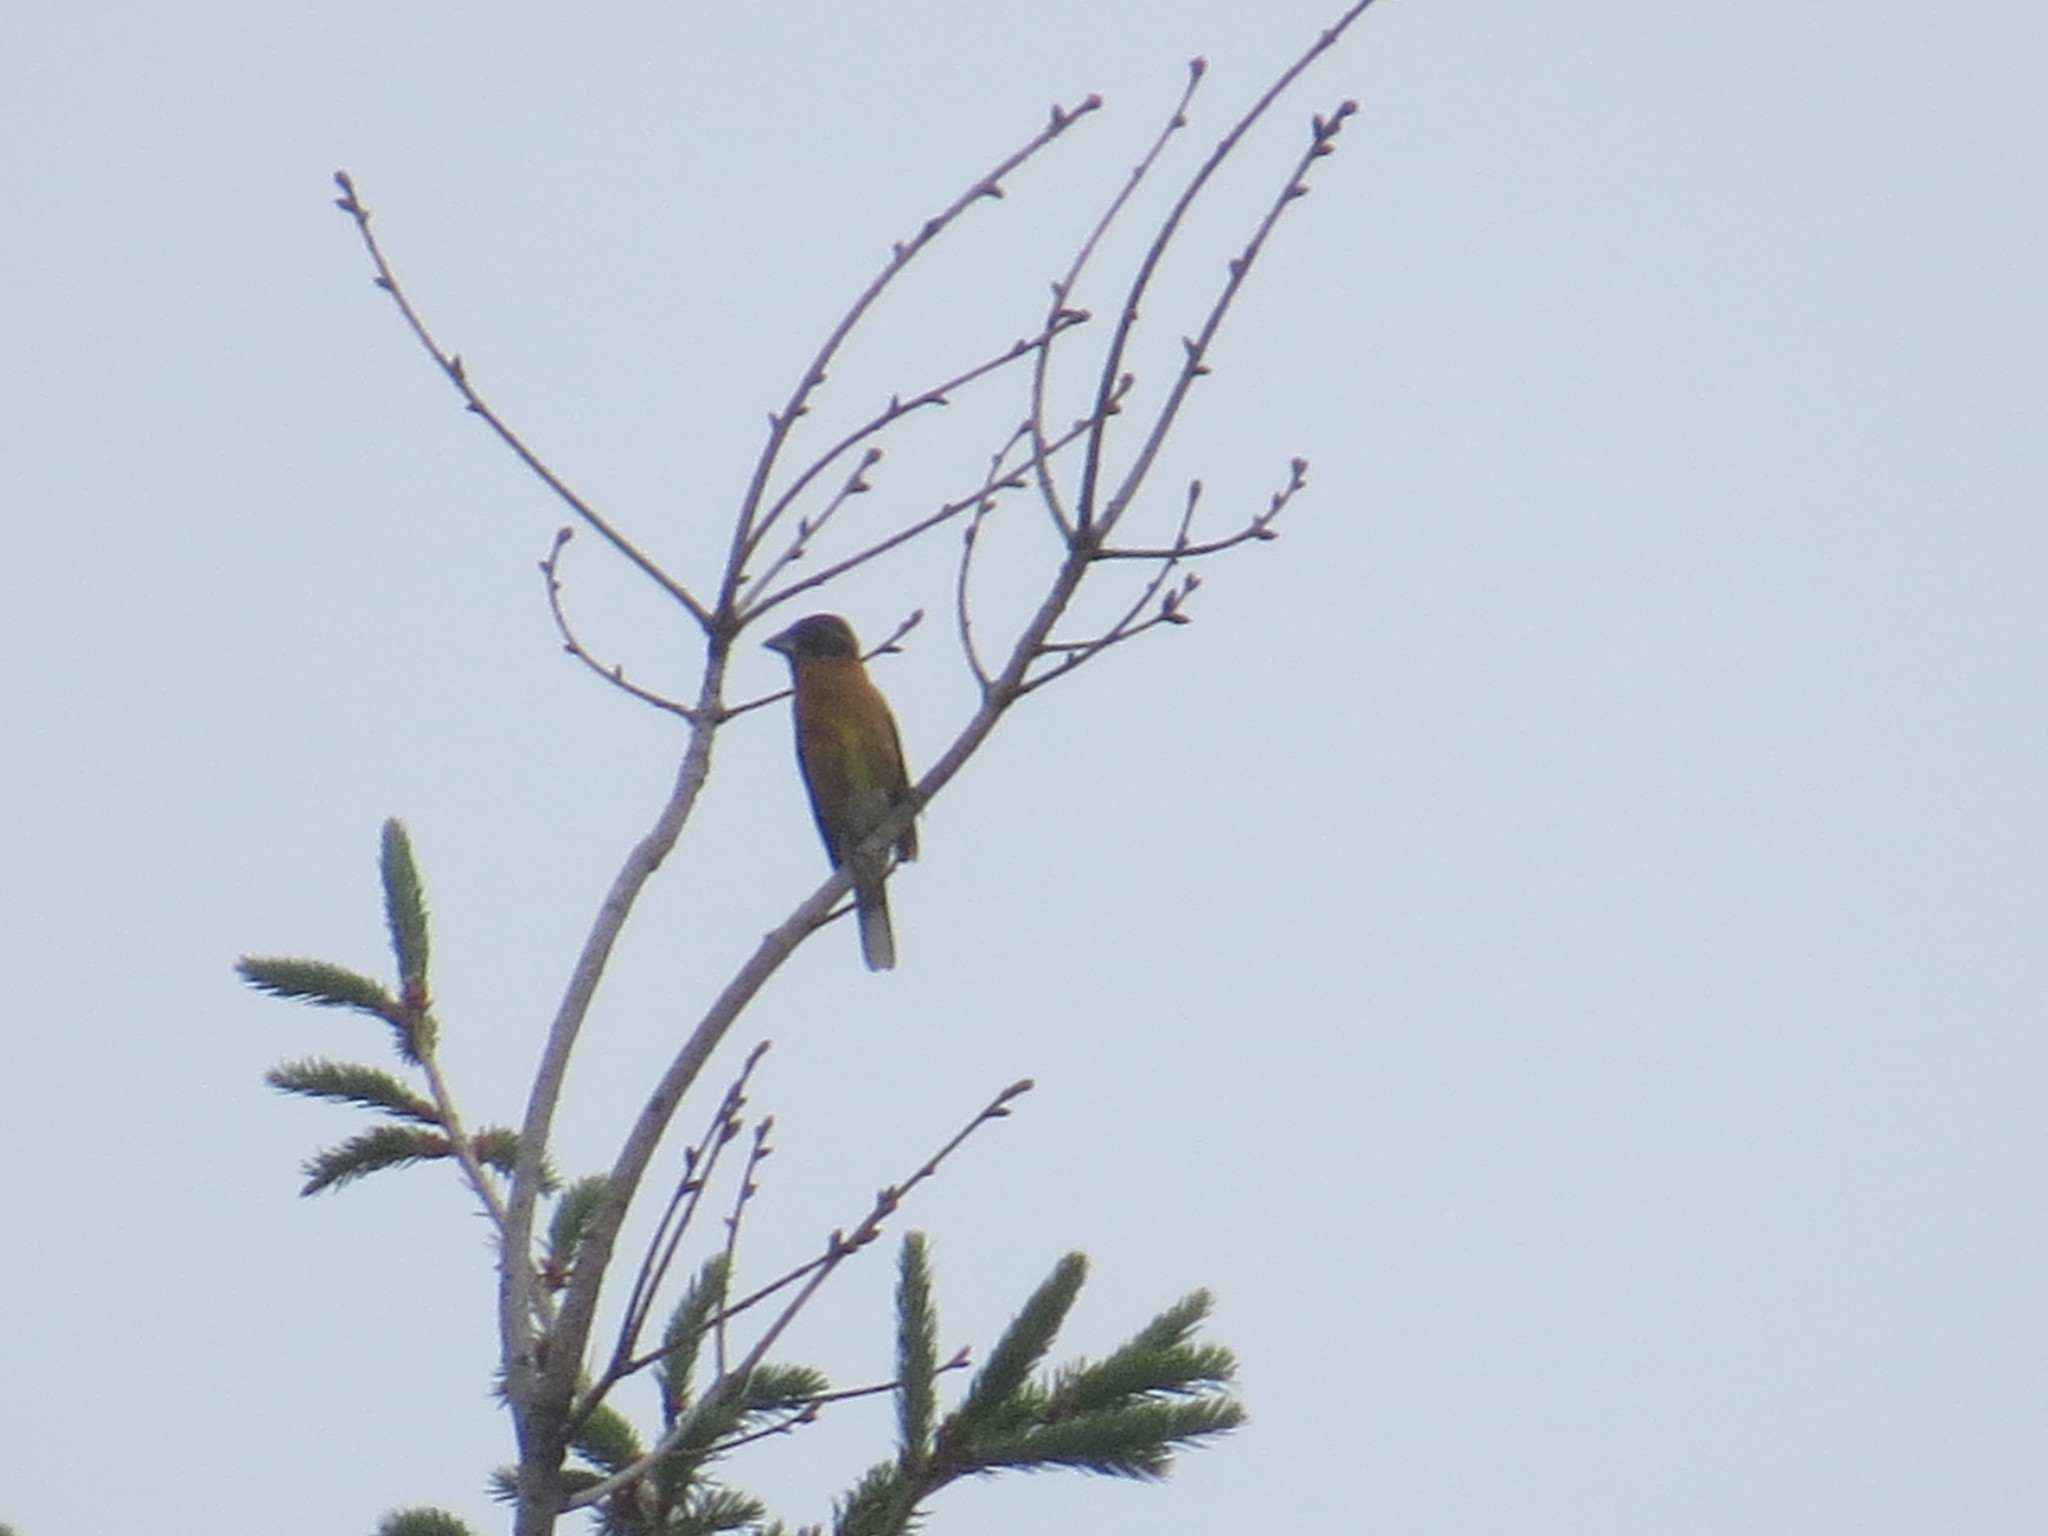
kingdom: Animalia
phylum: Chordata
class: Aves
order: Passeriformes
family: Cardinalidae
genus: Pheucticus
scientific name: Pheucticus melanocephalus
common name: Black-headed grosbeak
